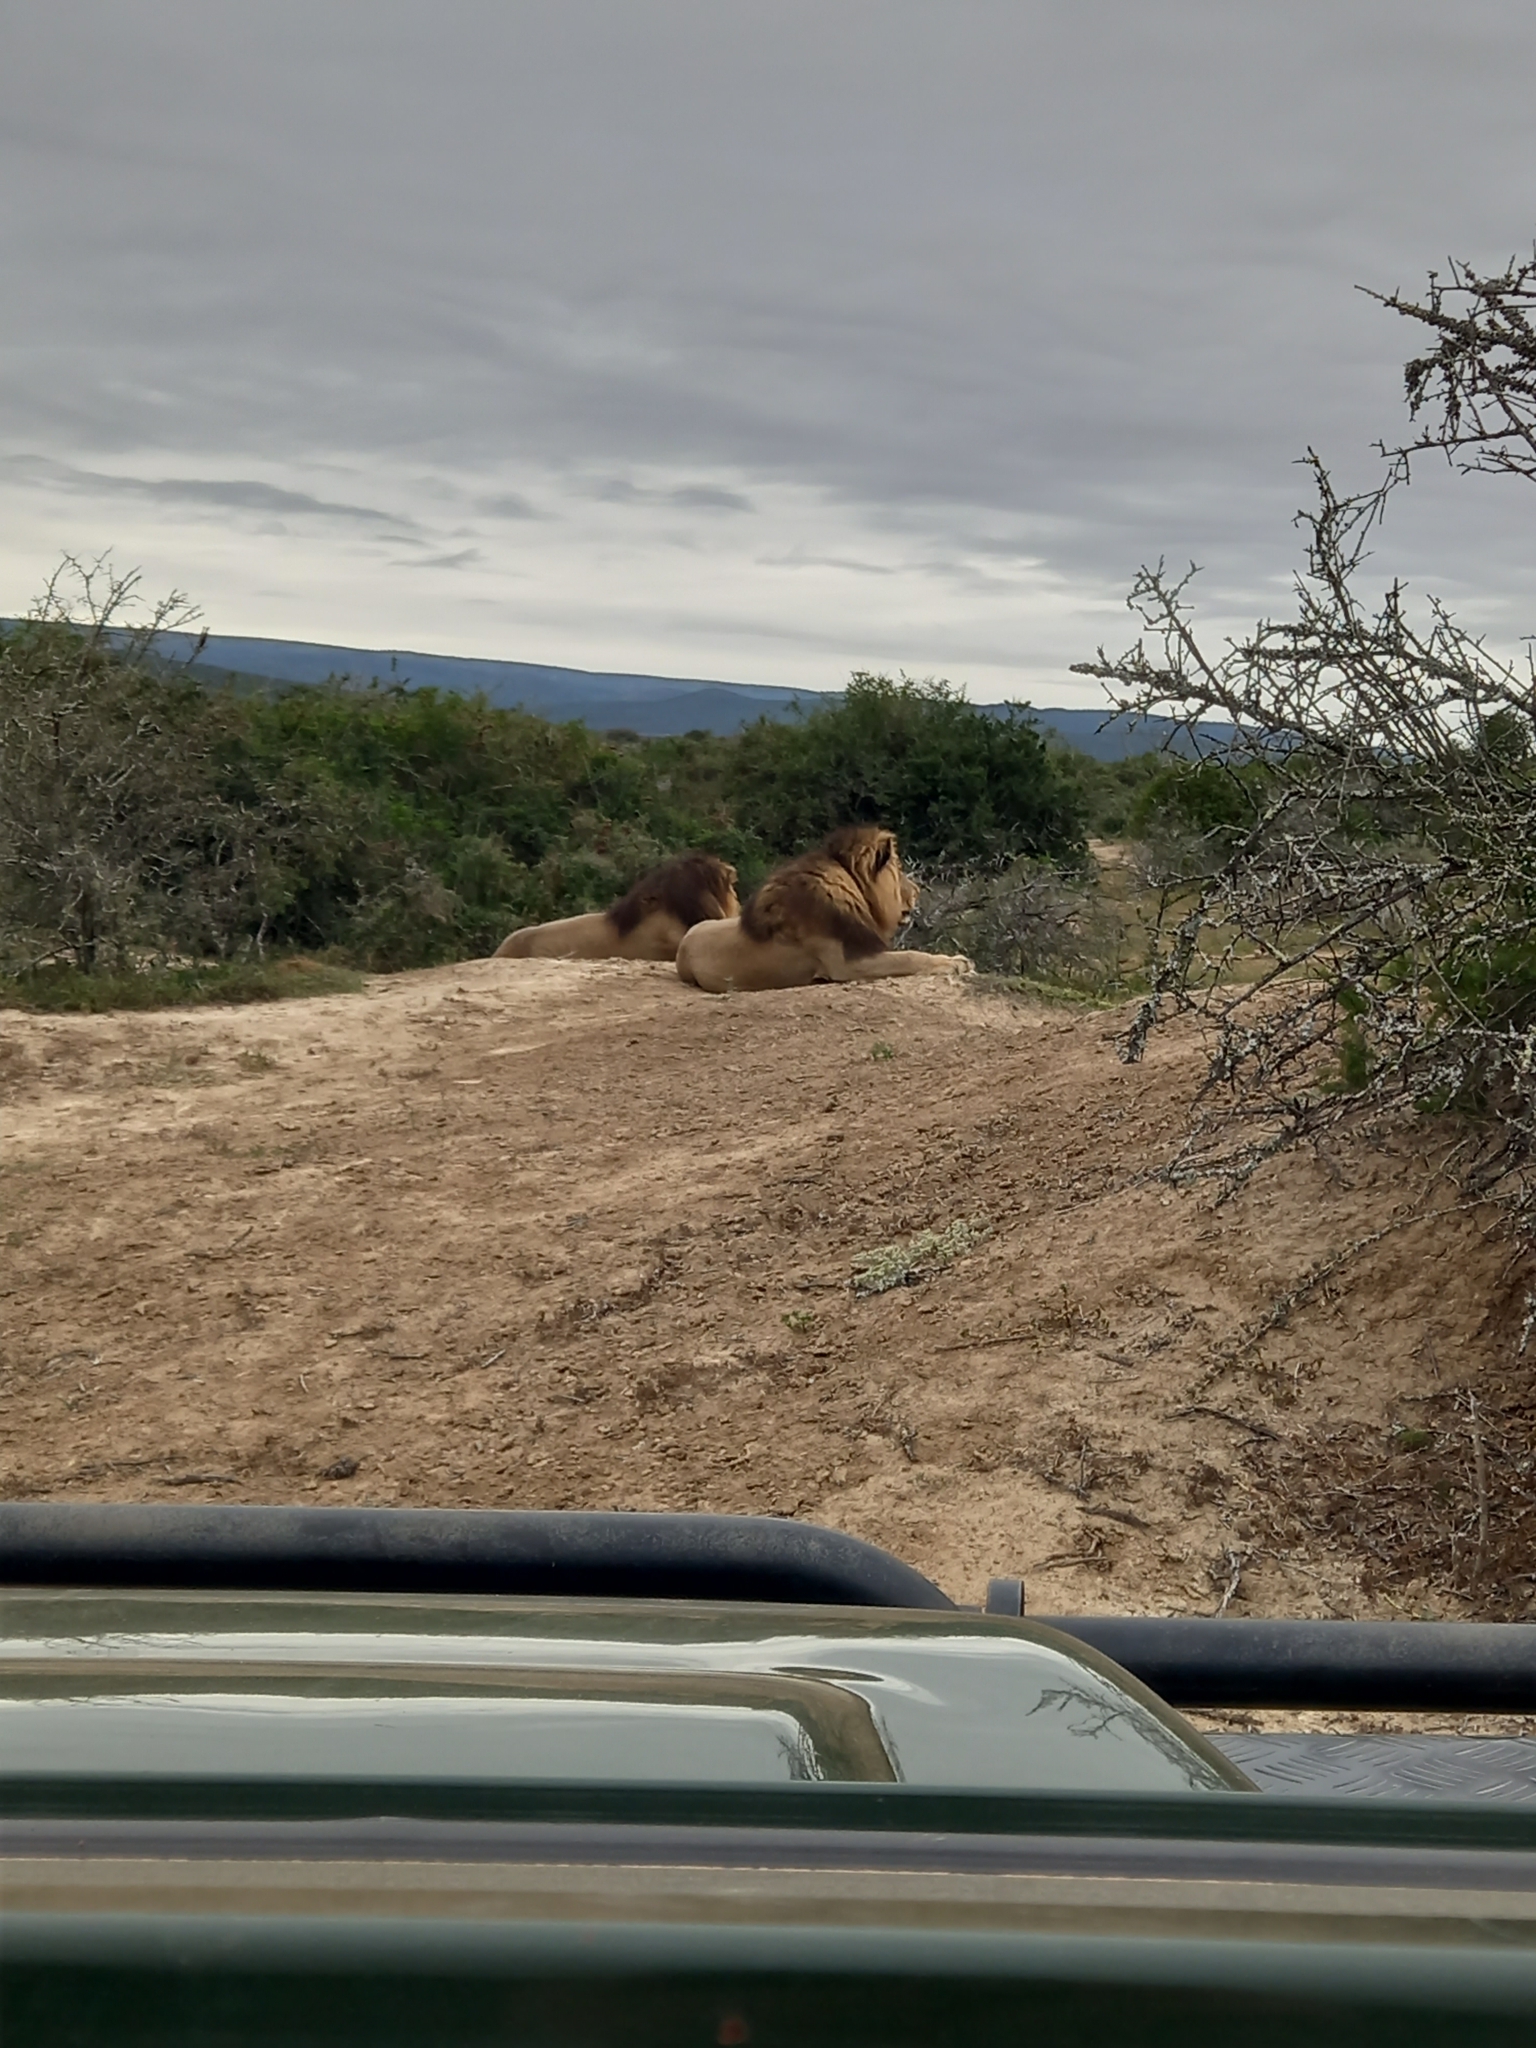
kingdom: Animalia
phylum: Chordata
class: Mammalia
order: Carnivora
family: Felidae
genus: Panthera
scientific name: Panthera leo
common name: Lion
